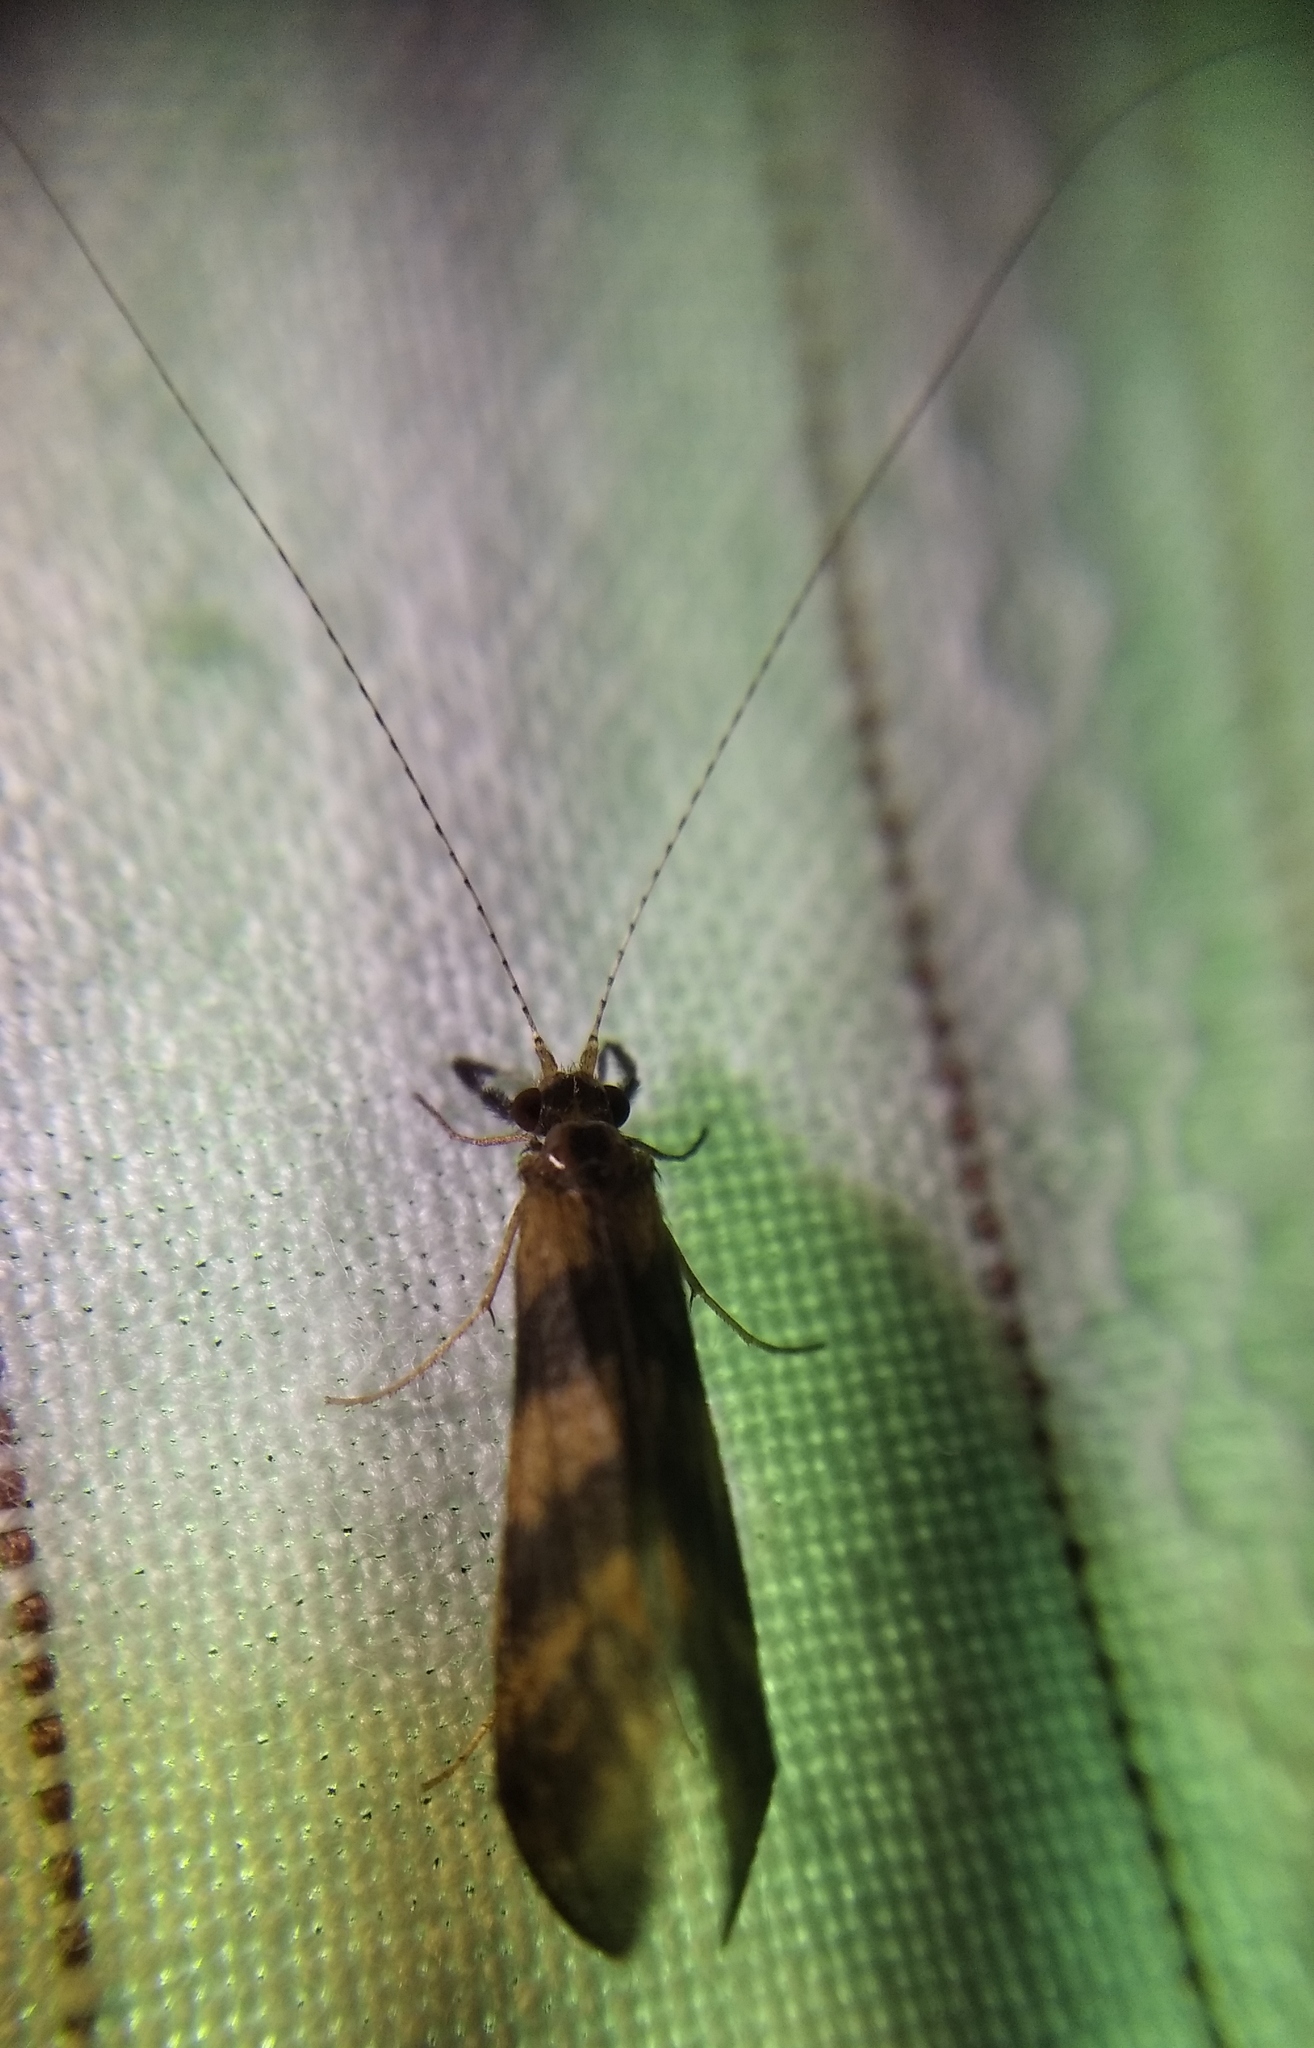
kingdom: Animalia
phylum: Arthropoda
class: Insecta
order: Trichoptera
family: Leptoceridae
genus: Mystacides
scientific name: Mystacides longicornis
